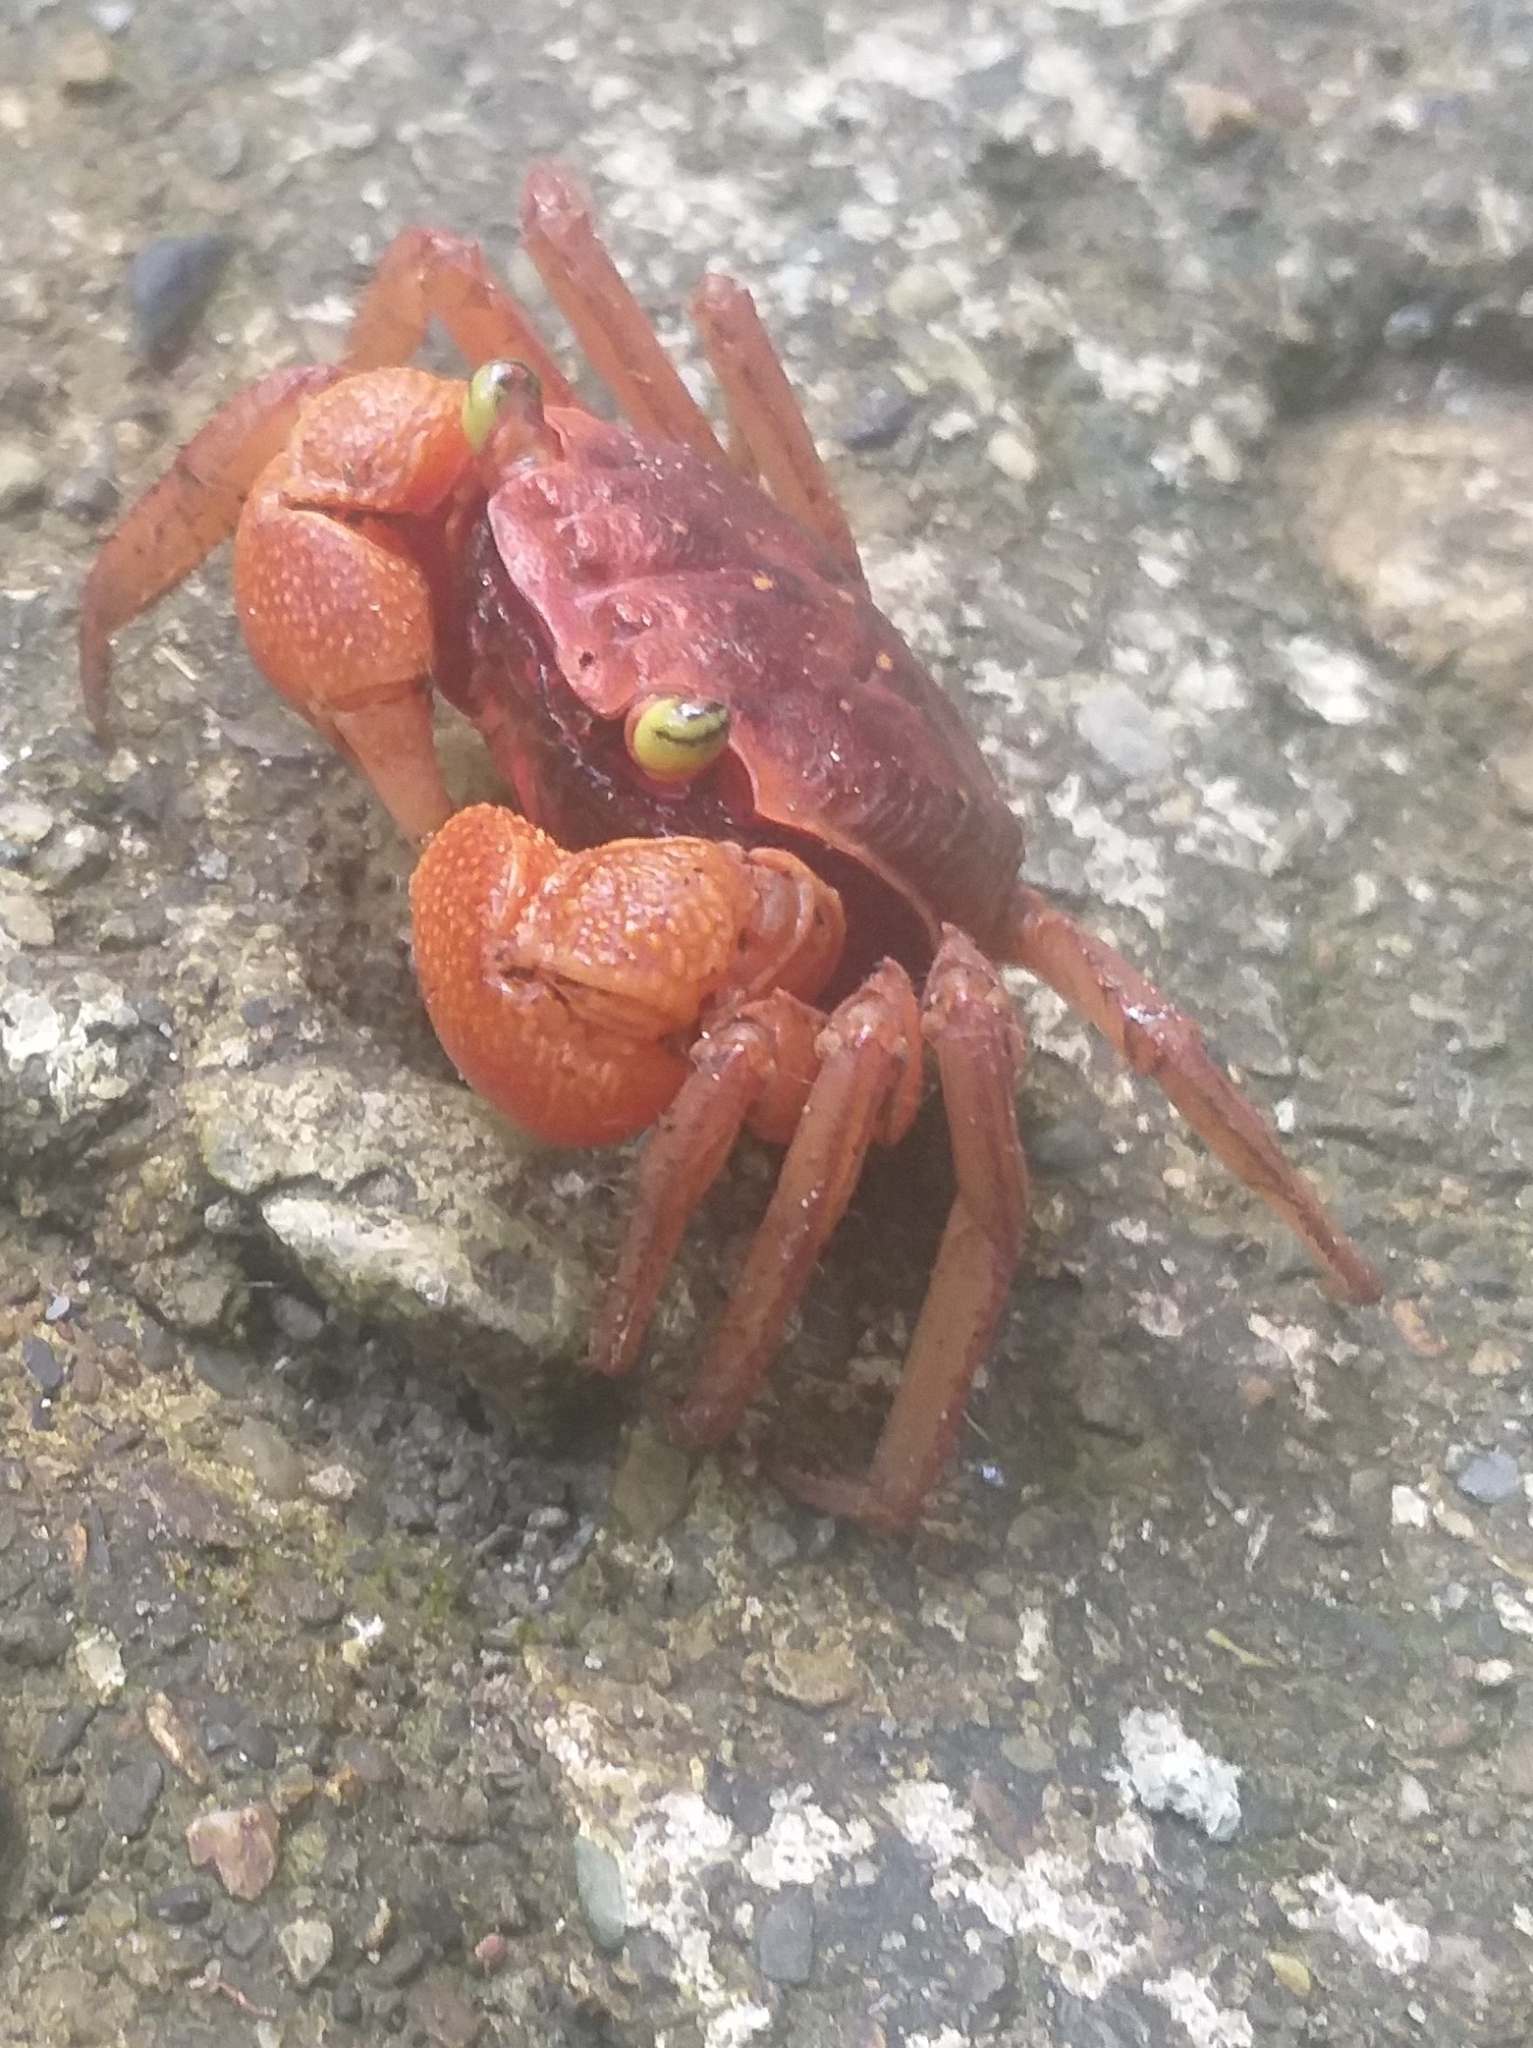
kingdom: Animalia
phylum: Arthropoda
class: Malacostraca
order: Decapoda
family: Sesarmidae
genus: Armases
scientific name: Armases americanum
